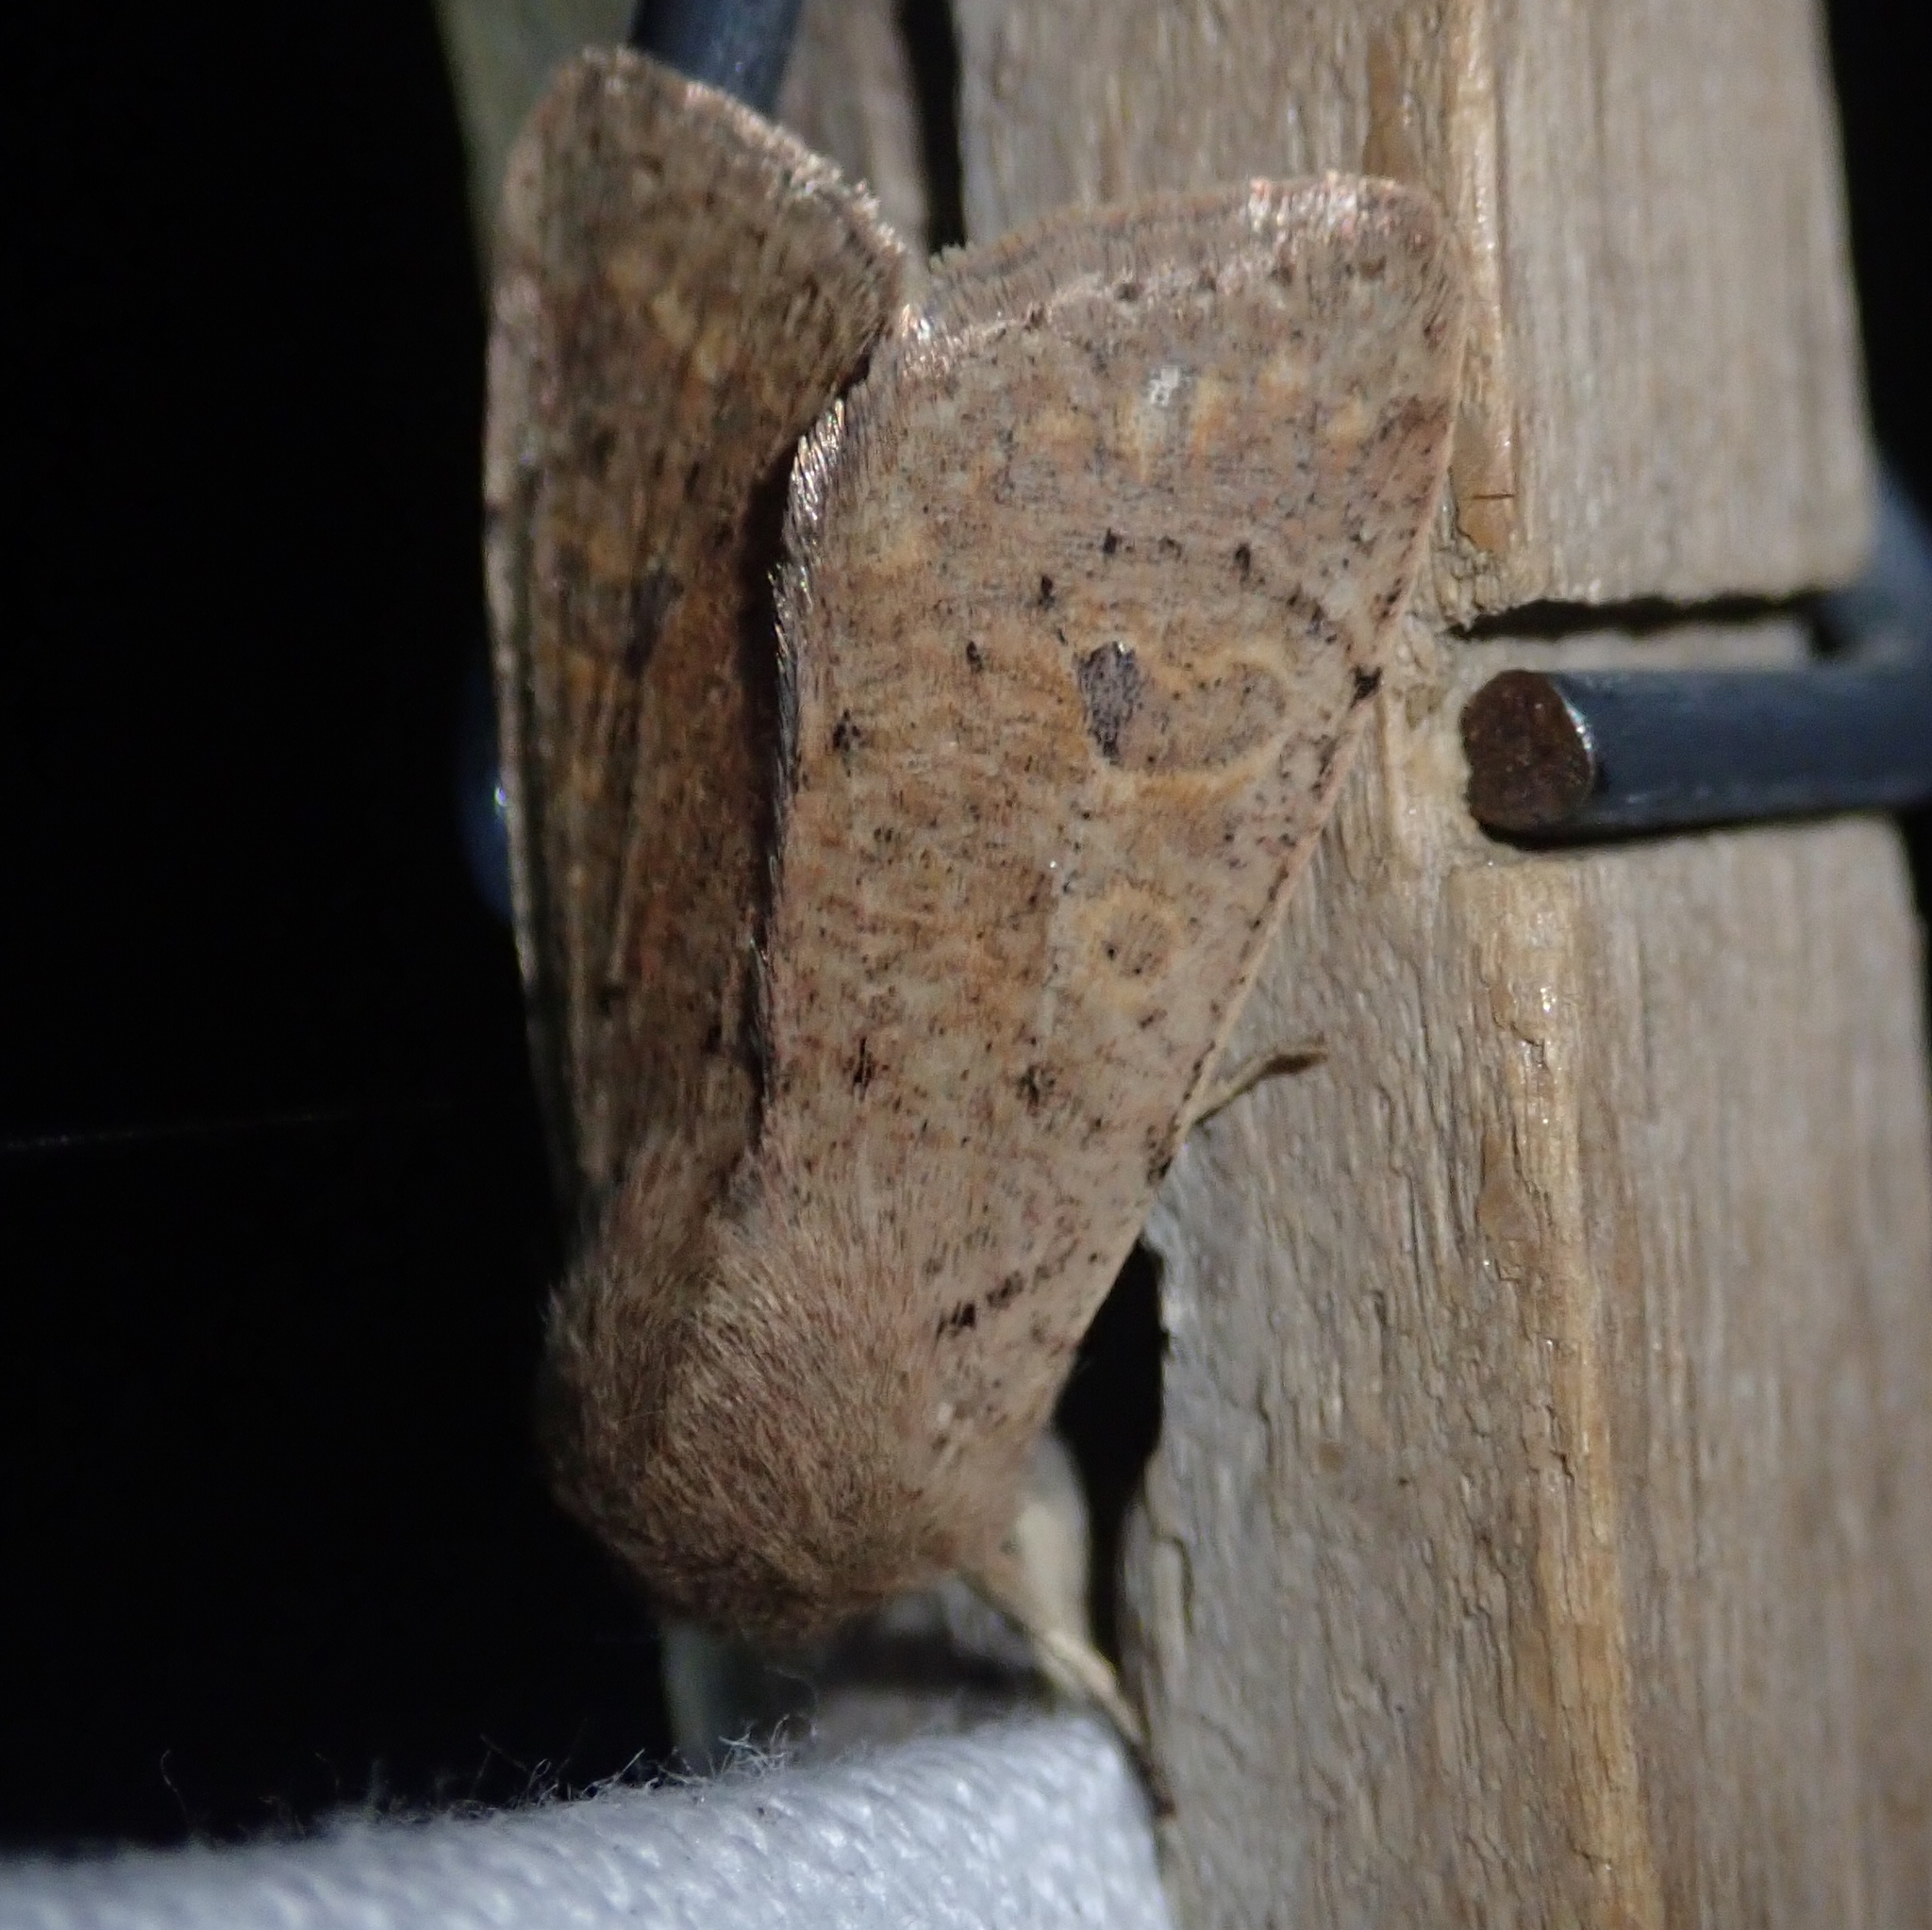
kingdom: Animalia
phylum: Arthropoda
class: Insecta
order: Lepidoptera
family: Noctuidae
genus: Orthosia
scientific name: Orthosia cruda
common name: Small quaker
